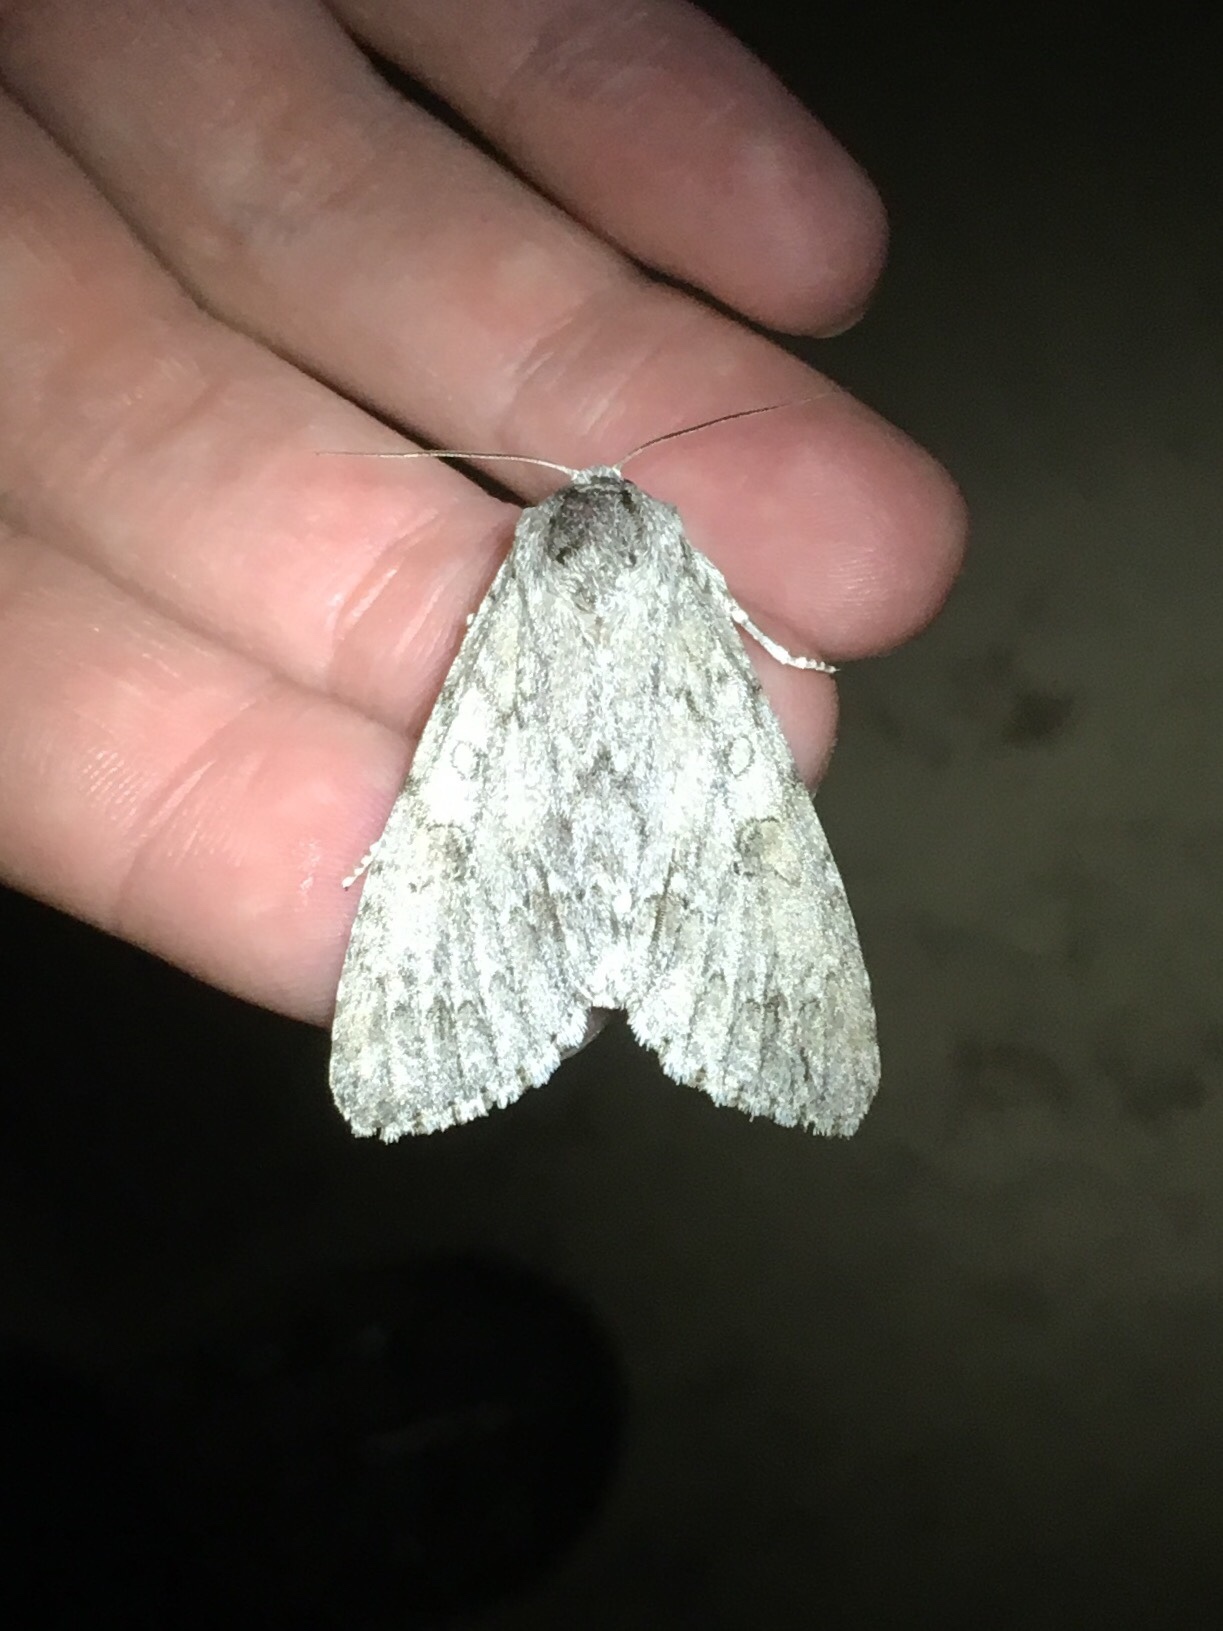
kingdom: Animalia
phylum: Arthropoda
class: Insecta
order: Lepidoptera
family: Noctuidae
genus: Acronicta
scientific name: Acronicta americana
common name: American dagger
